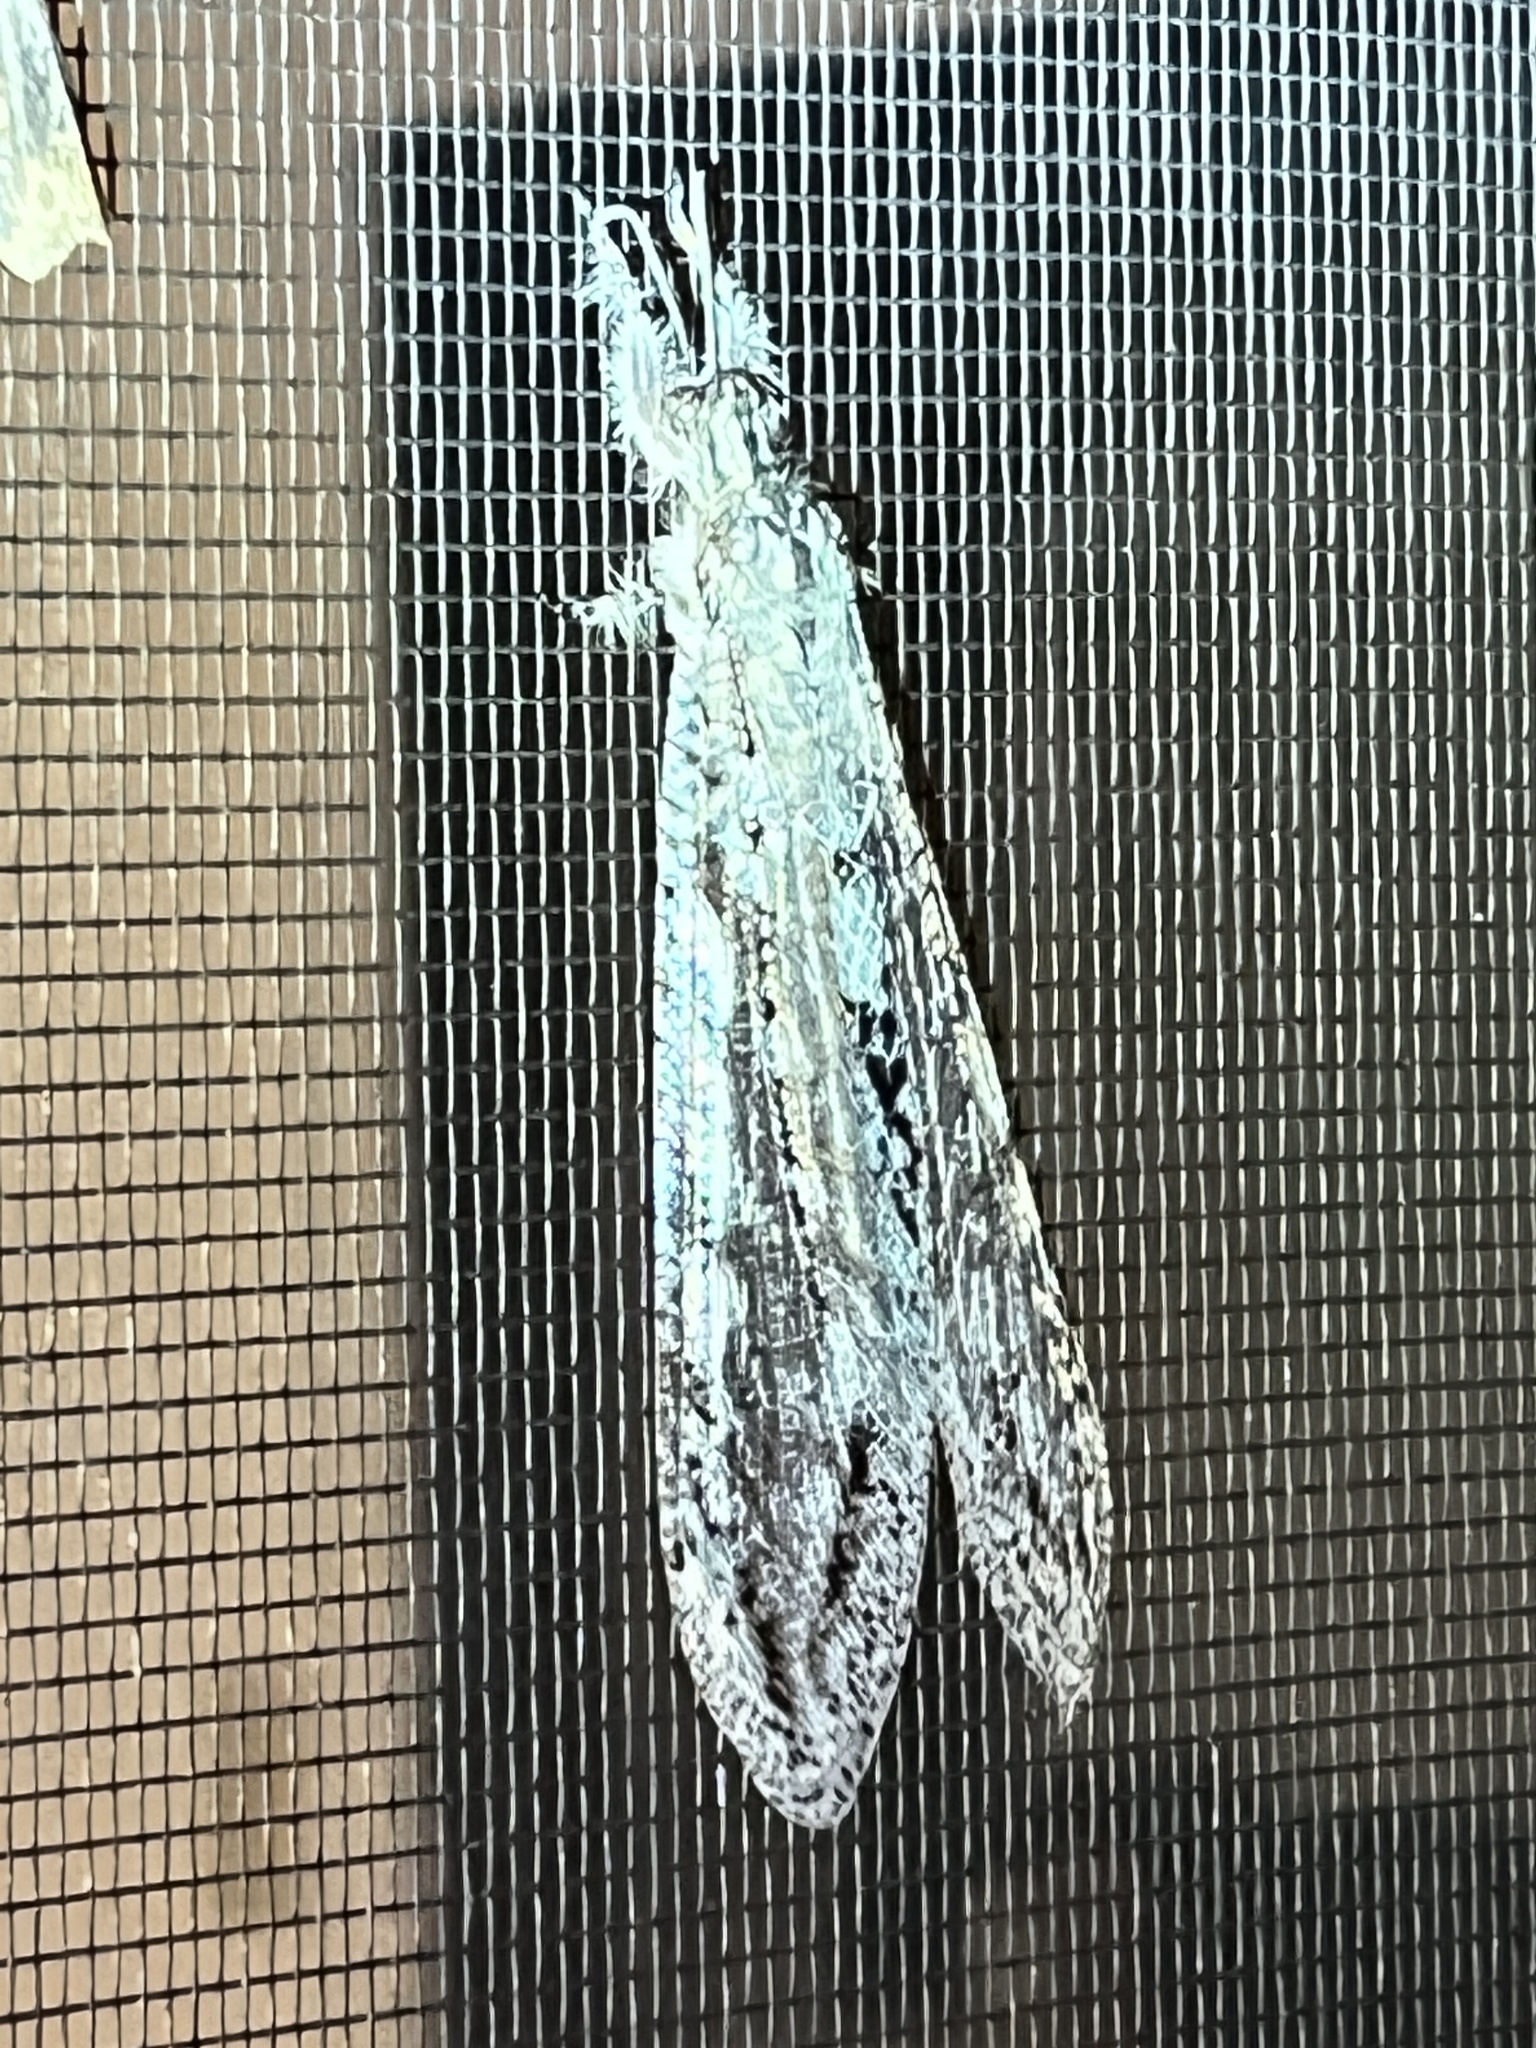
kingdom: Animalia
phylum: Arthropoda
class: Insecta
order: Neuroptera
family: Myrmeleontidae
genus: Vella
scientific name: Vella americana
